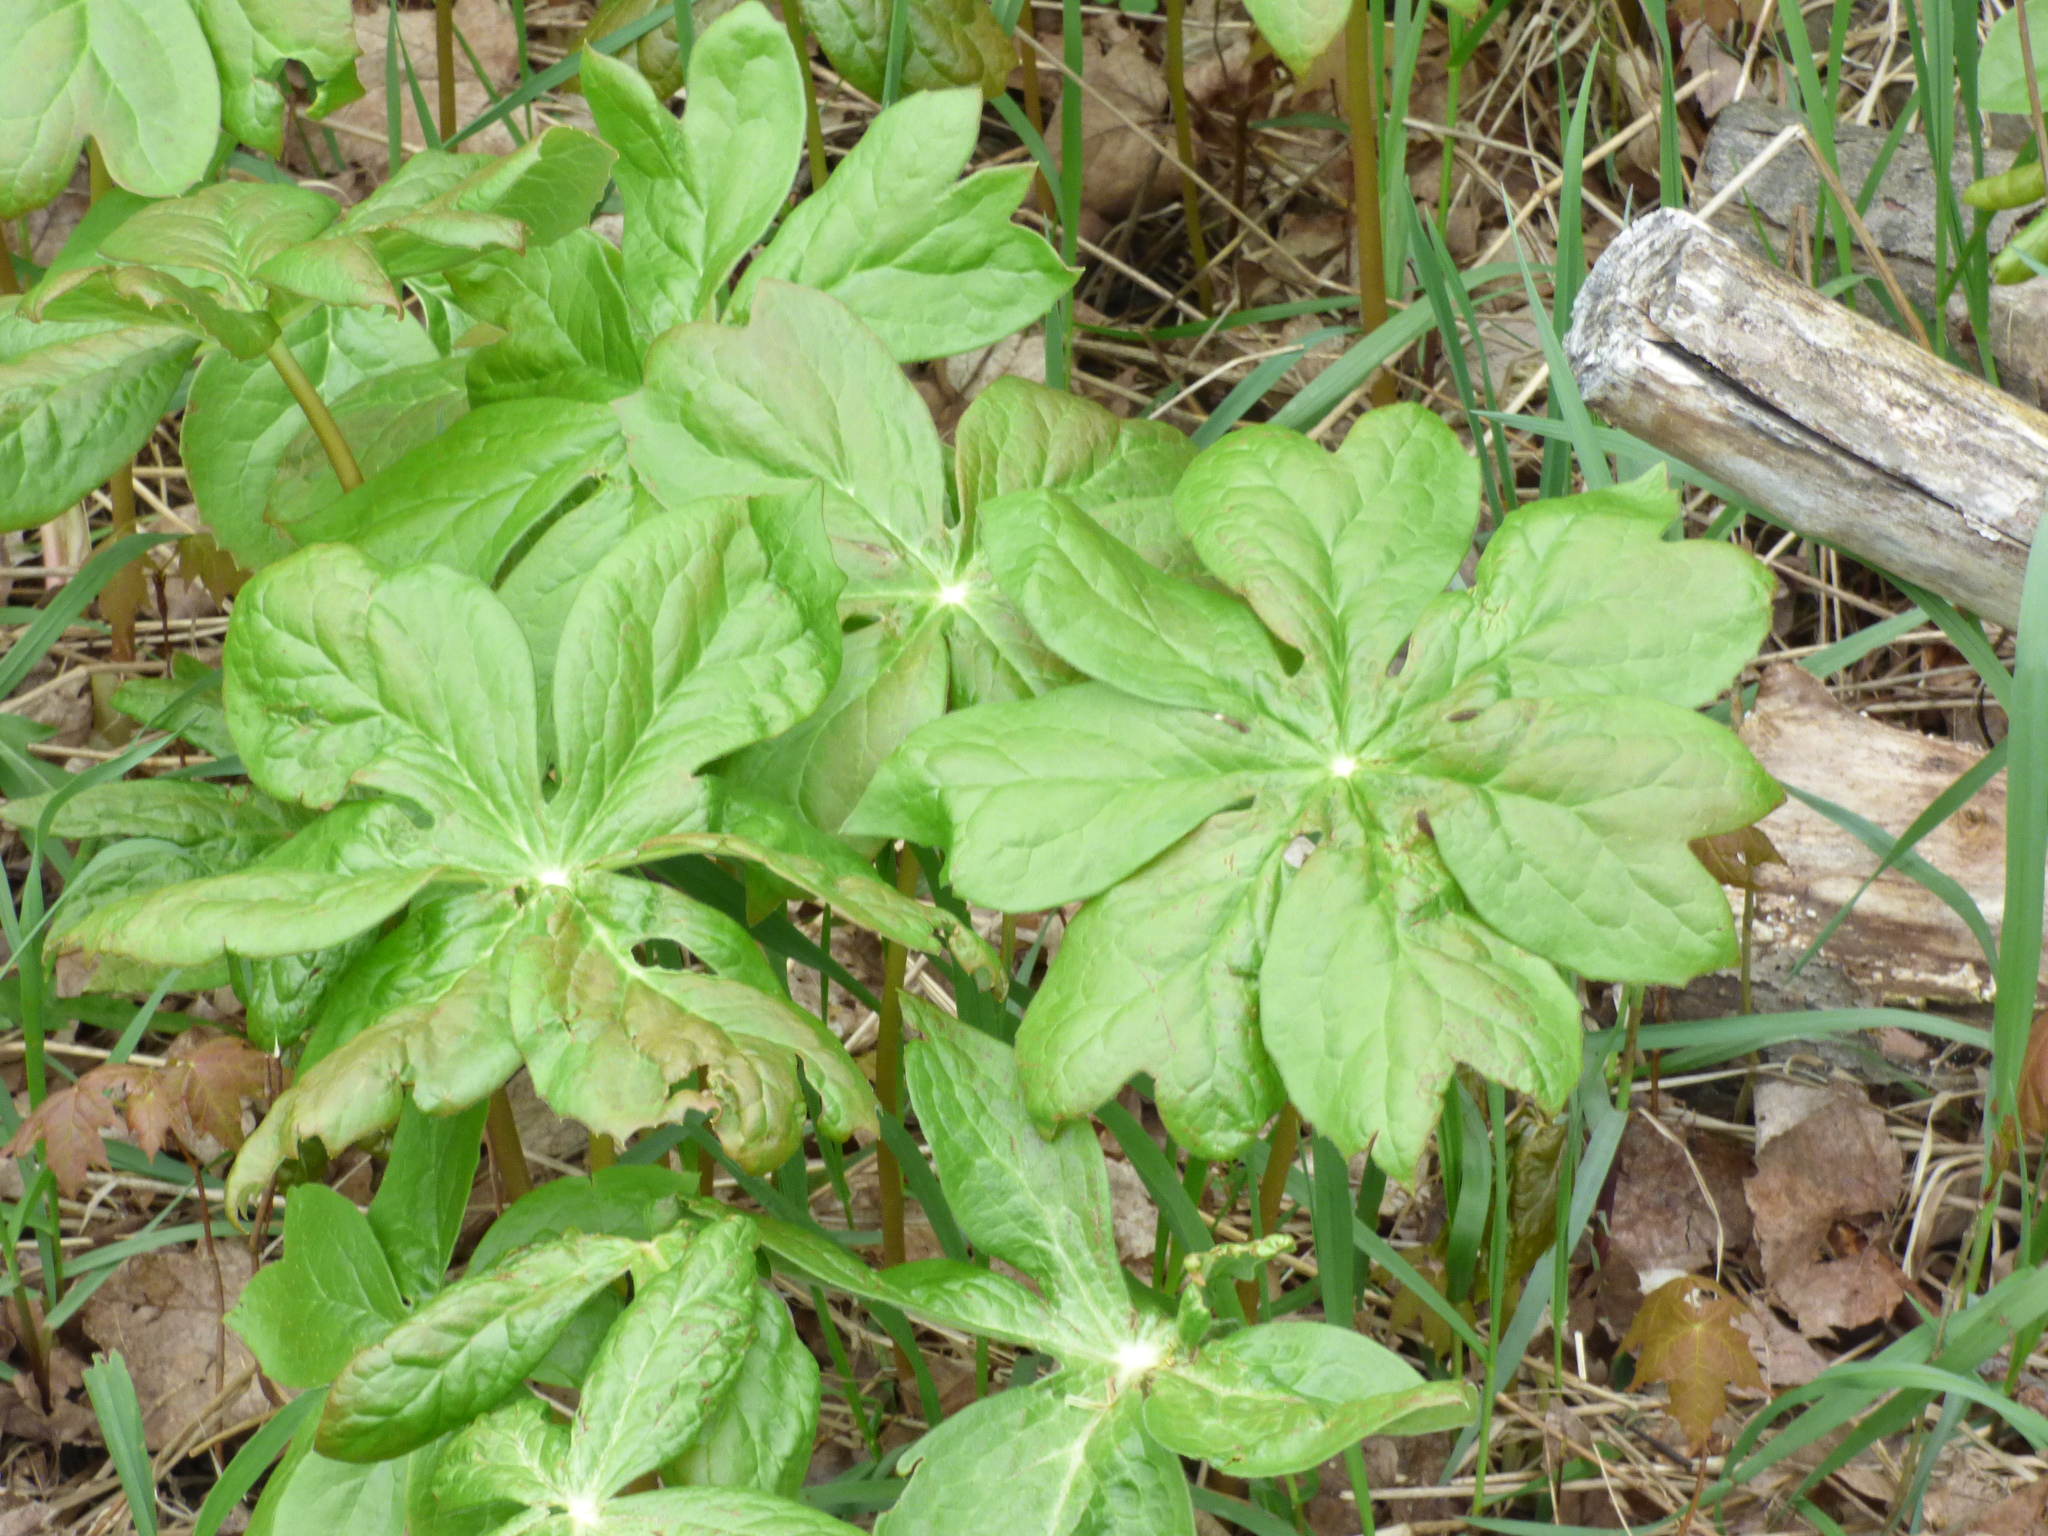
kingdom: Plantae
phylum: Tracheophyta
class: Magnoliopsida
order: Ranunculales
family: Berberidaceae
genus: Podophyllum
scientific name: Podophyllum peltatum
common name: Wild mandrake
